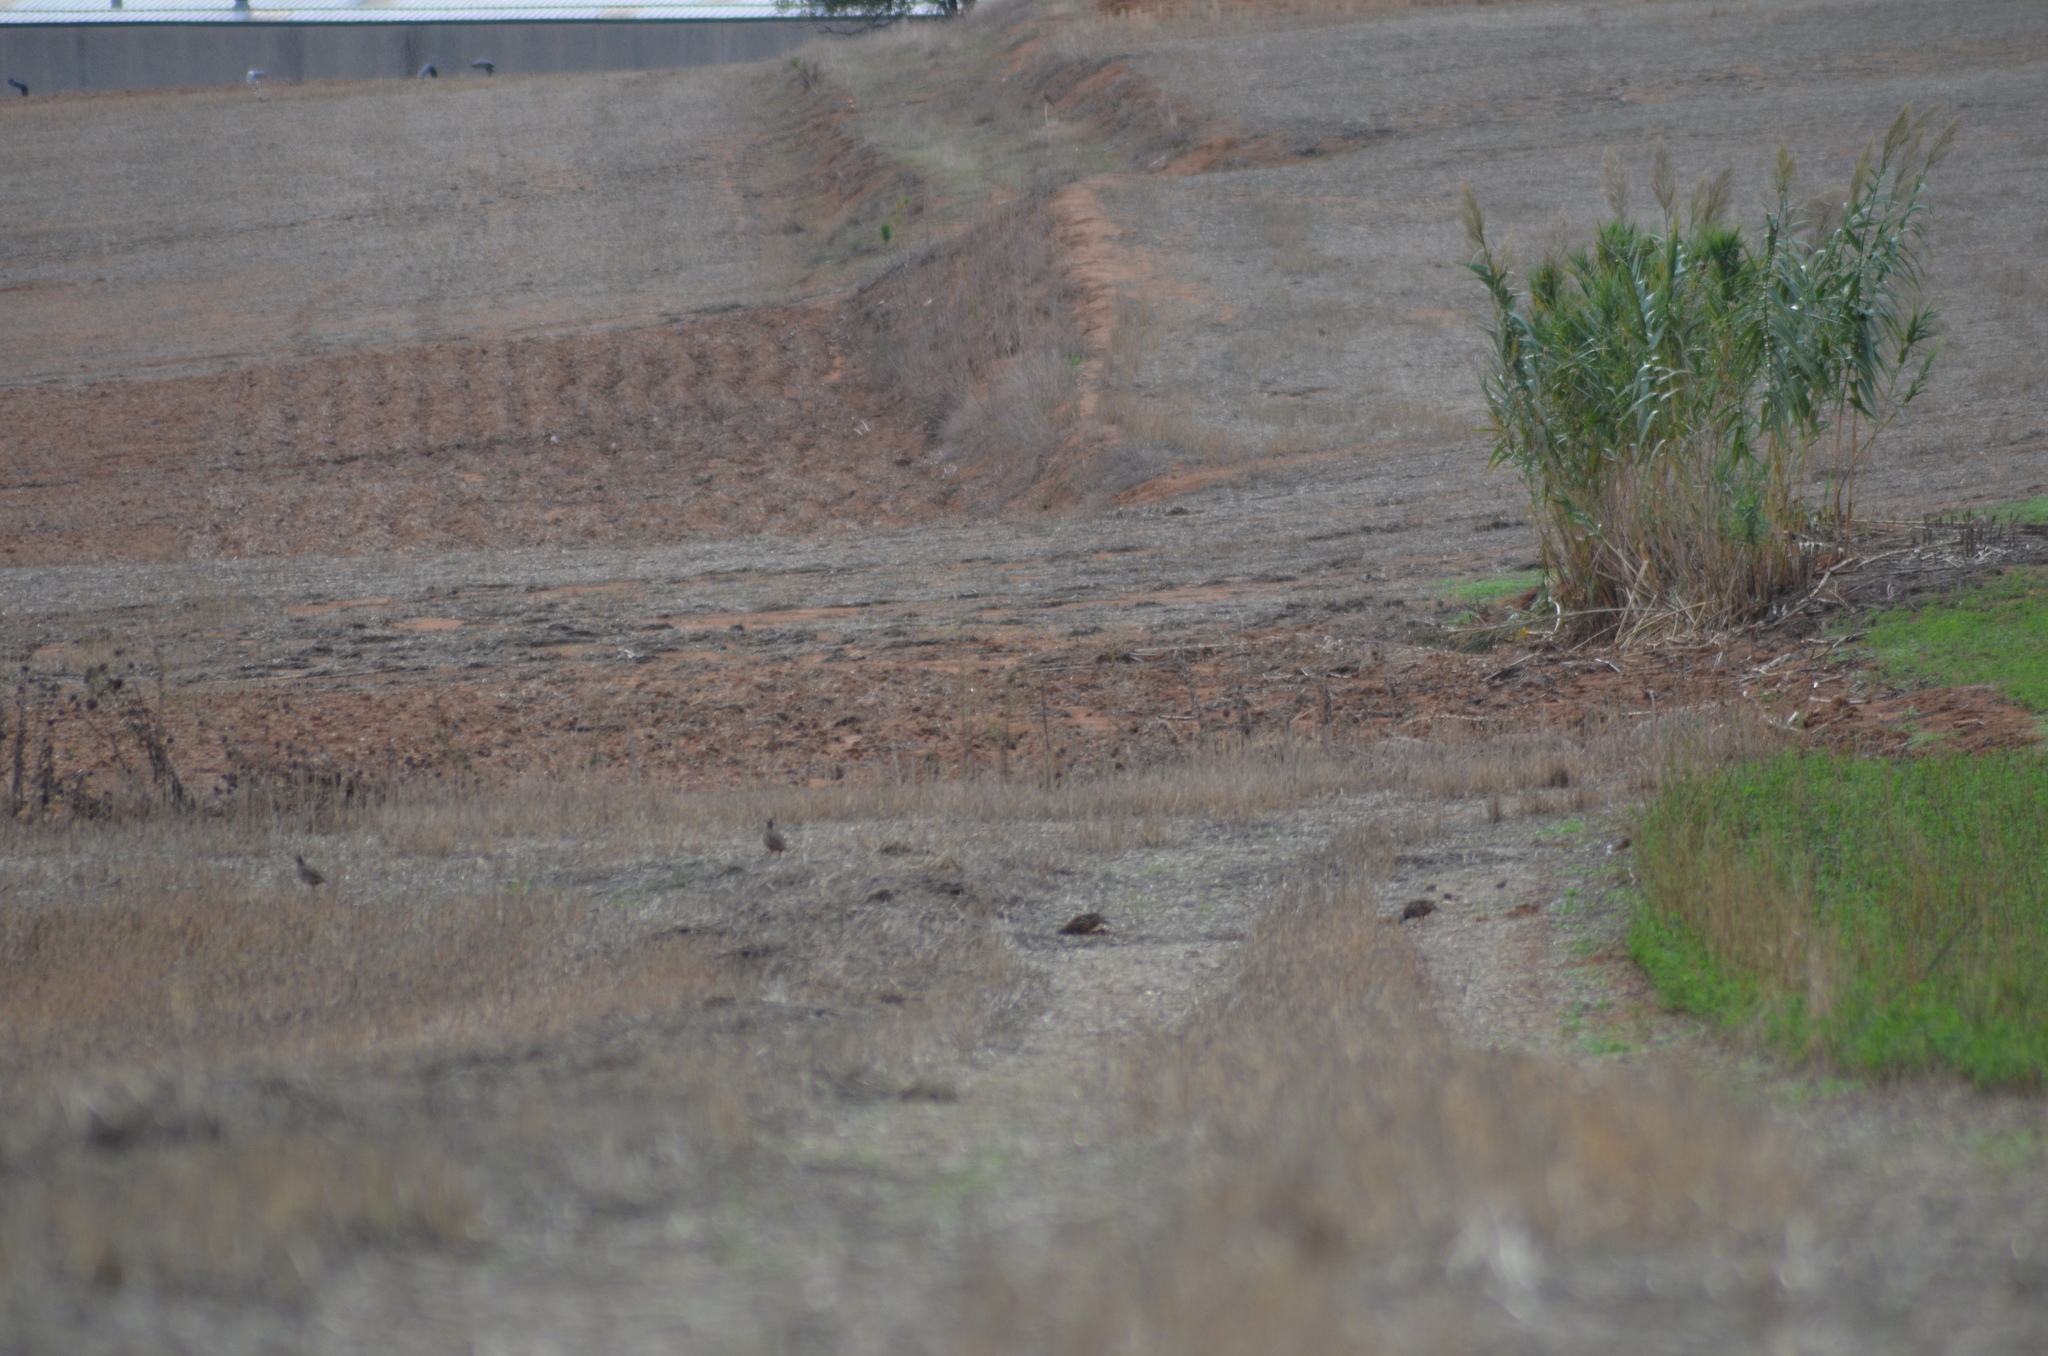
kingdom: Animalia
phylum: Chordata
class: Aves
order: Galliformes
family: Phasianidae
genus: Alectoris
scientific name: Alectoris rufa
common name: Red-legged partridge
